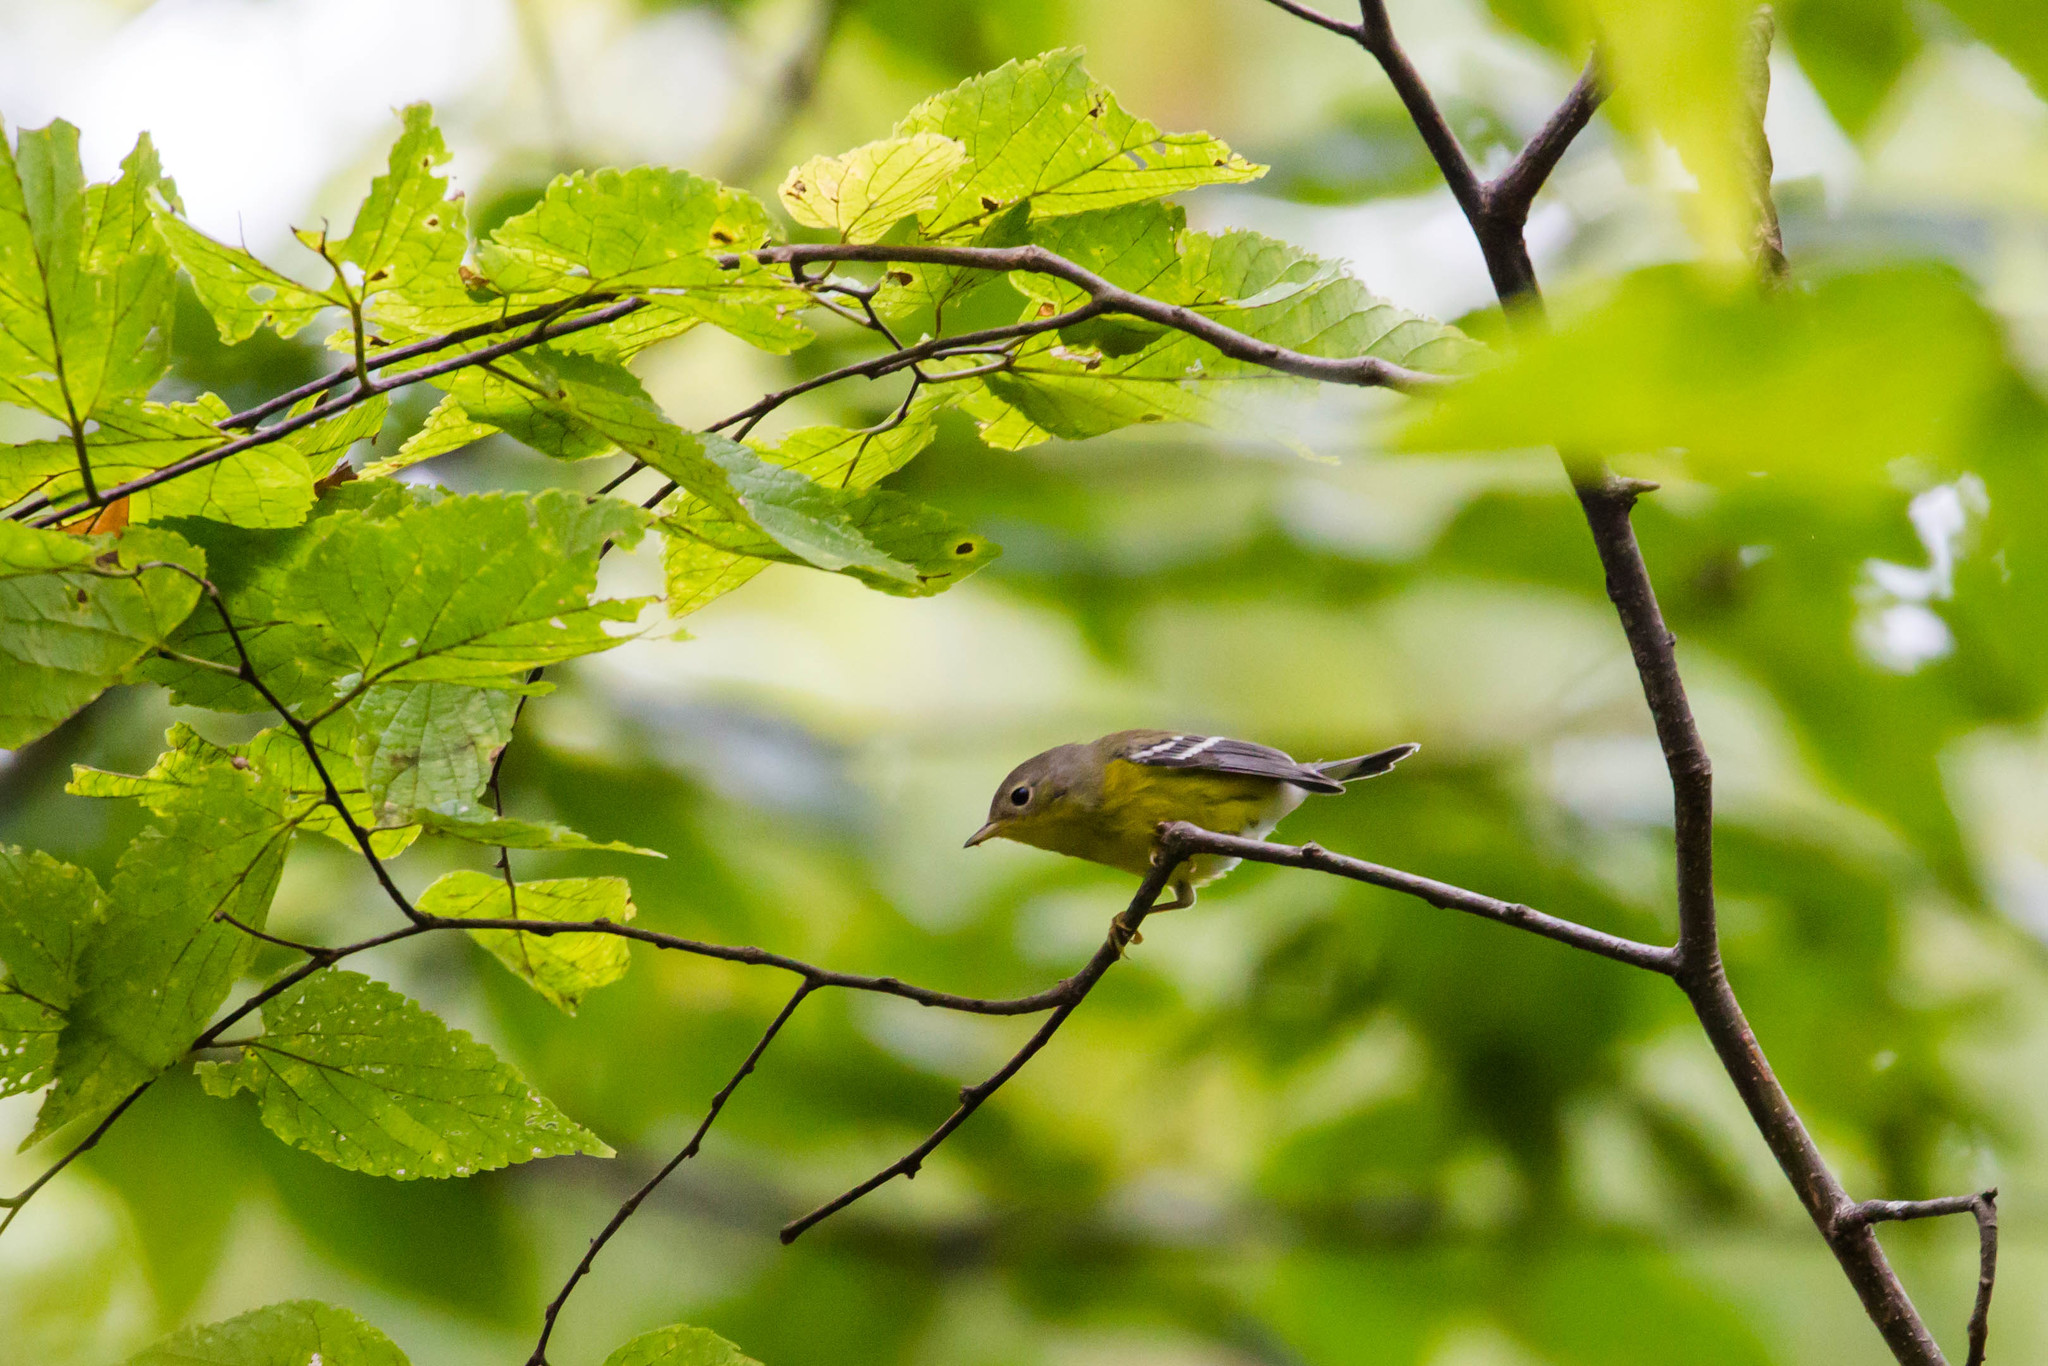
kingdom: Animalia
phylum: Chordata
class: Aves
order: Passeriformes
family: Parulidae
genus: Setophaga
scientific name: Setophaga magnolia
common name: Magnolia warbler
